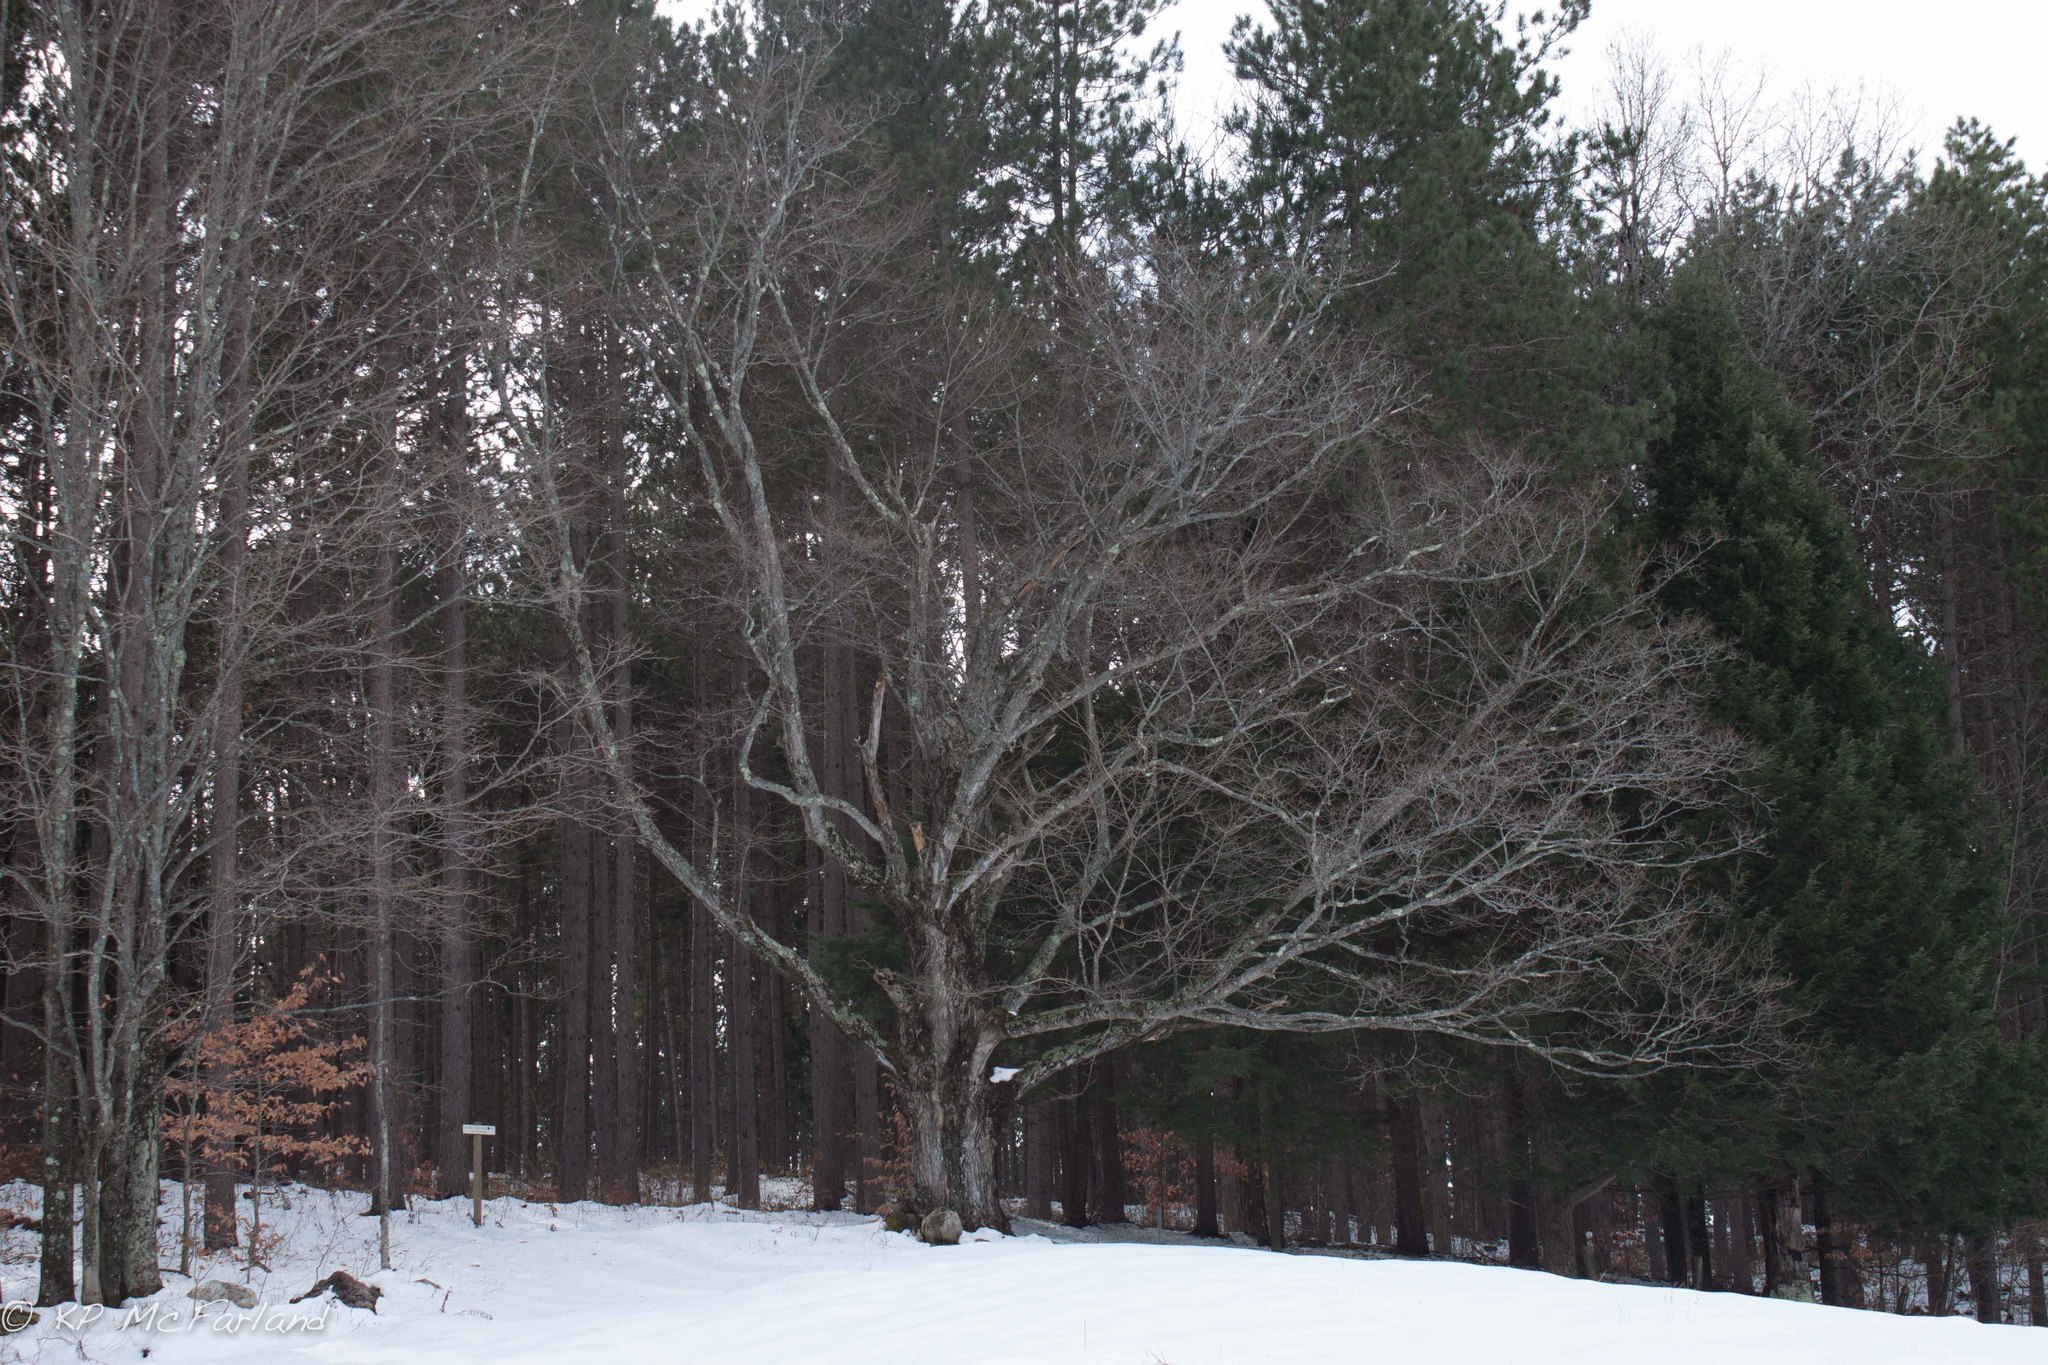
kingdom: Plantae
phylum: Tracheophyta
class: Magnoliopsida
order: Sapindales
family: Sapindaceae
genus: Acer
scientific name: Acer saccharum
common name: Sugar maple
